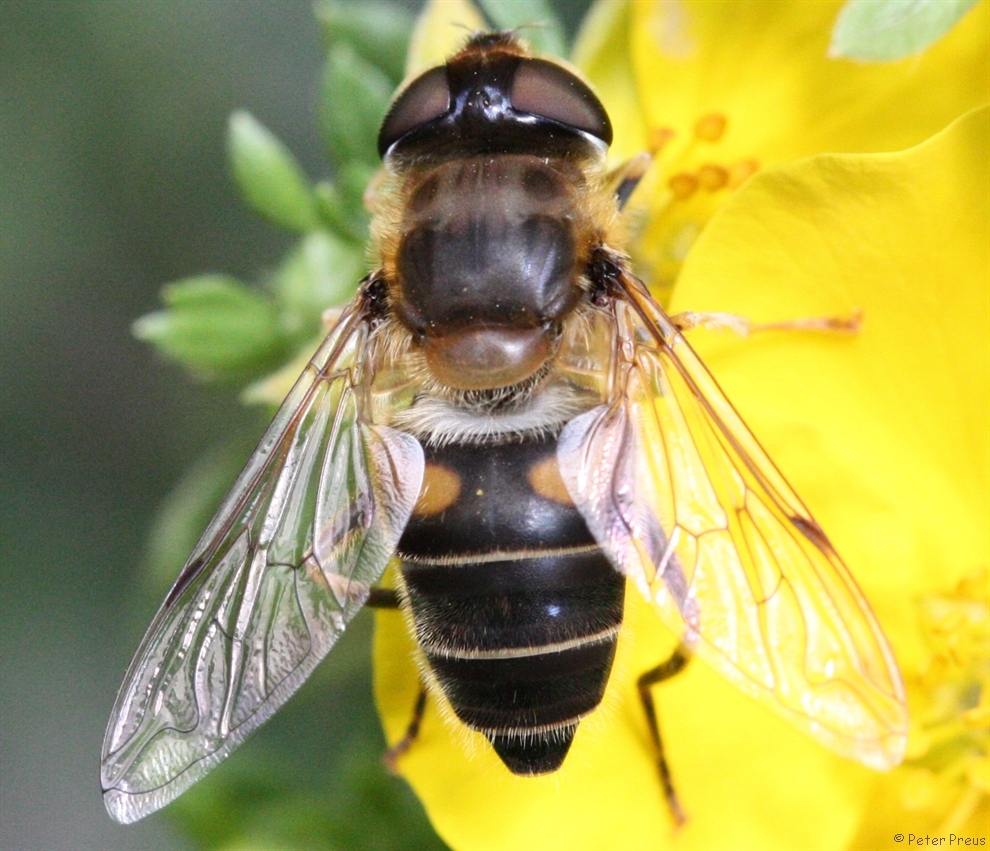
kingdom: Animalia
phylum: Arthropoda
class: Insecta
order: Diptera
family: Syrphidae
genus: Eristalis
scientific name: Eristalis pertinax
